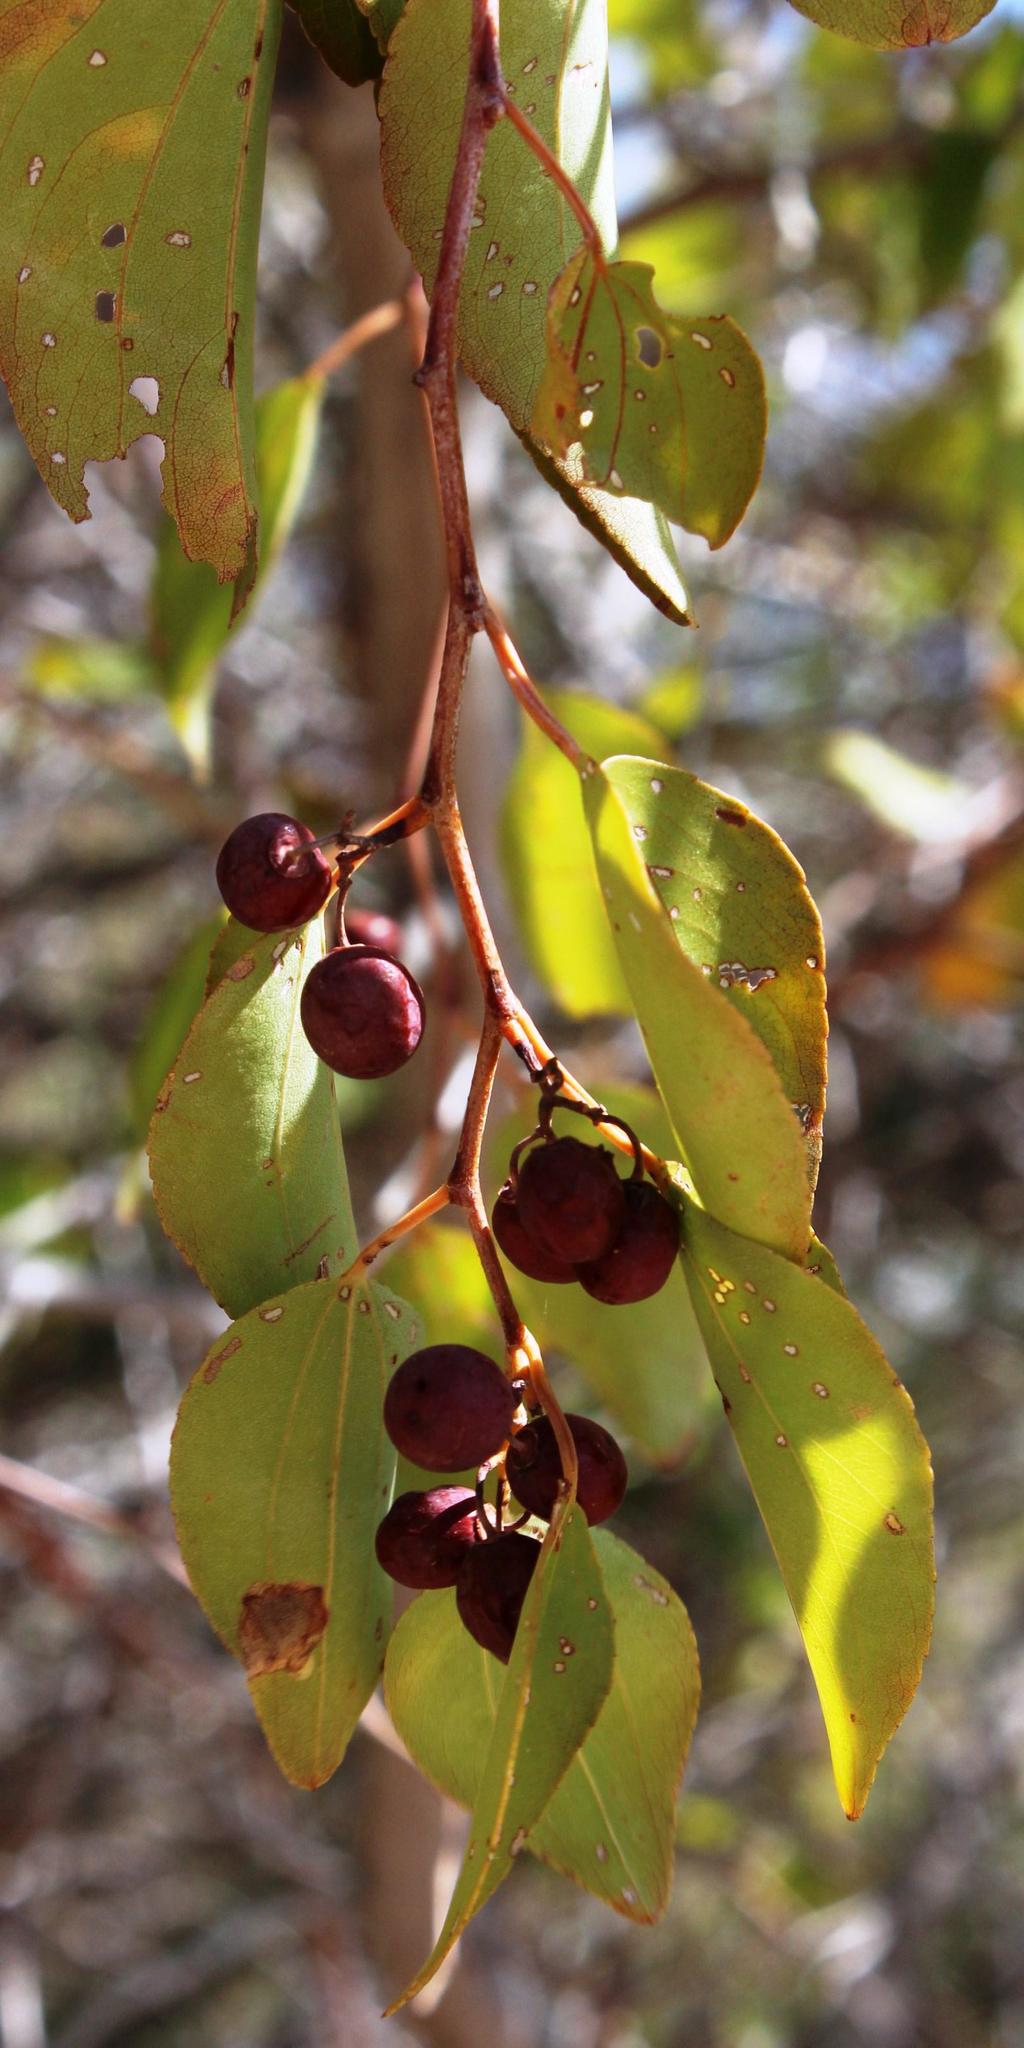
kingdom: Plantae
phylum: Tracheophyta
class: Magnoliopsida
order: Rosales
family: Rhamnaceae
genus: Ziziphus
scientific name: Ziziphus mucronata
